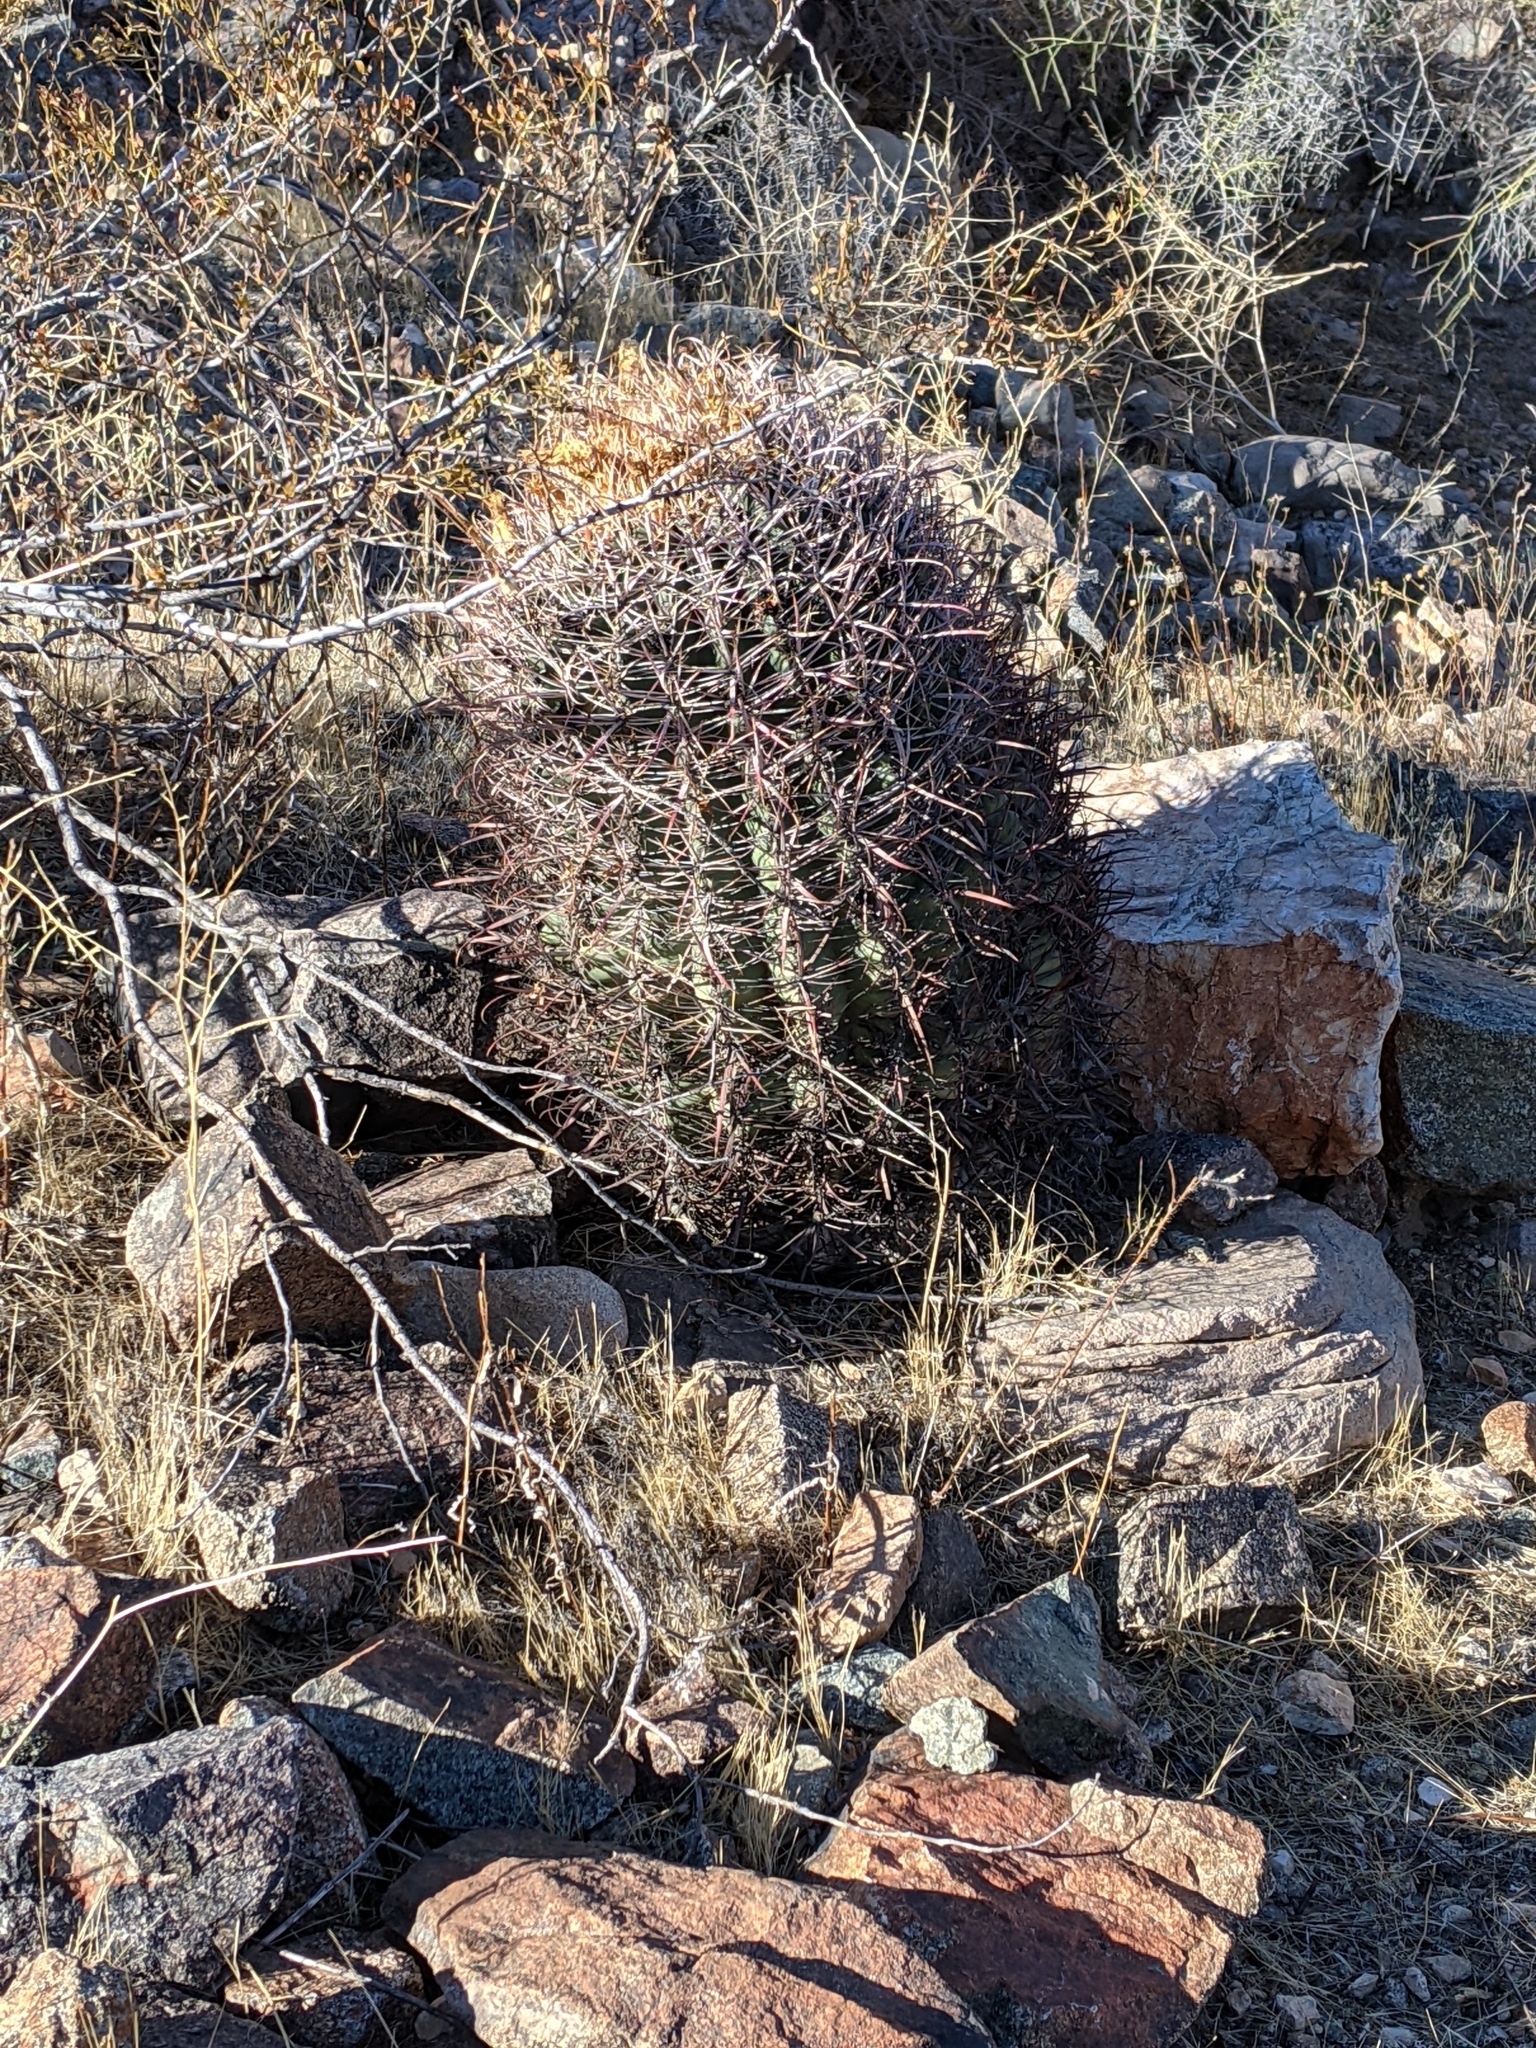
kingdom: Plantae
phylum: Tracheophyta
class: Magnoliopsida
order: Caryophyllales
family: Cactaceae
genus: Ferocactus
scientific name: Ferocactus cylindraceus
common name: California barrel cactus
